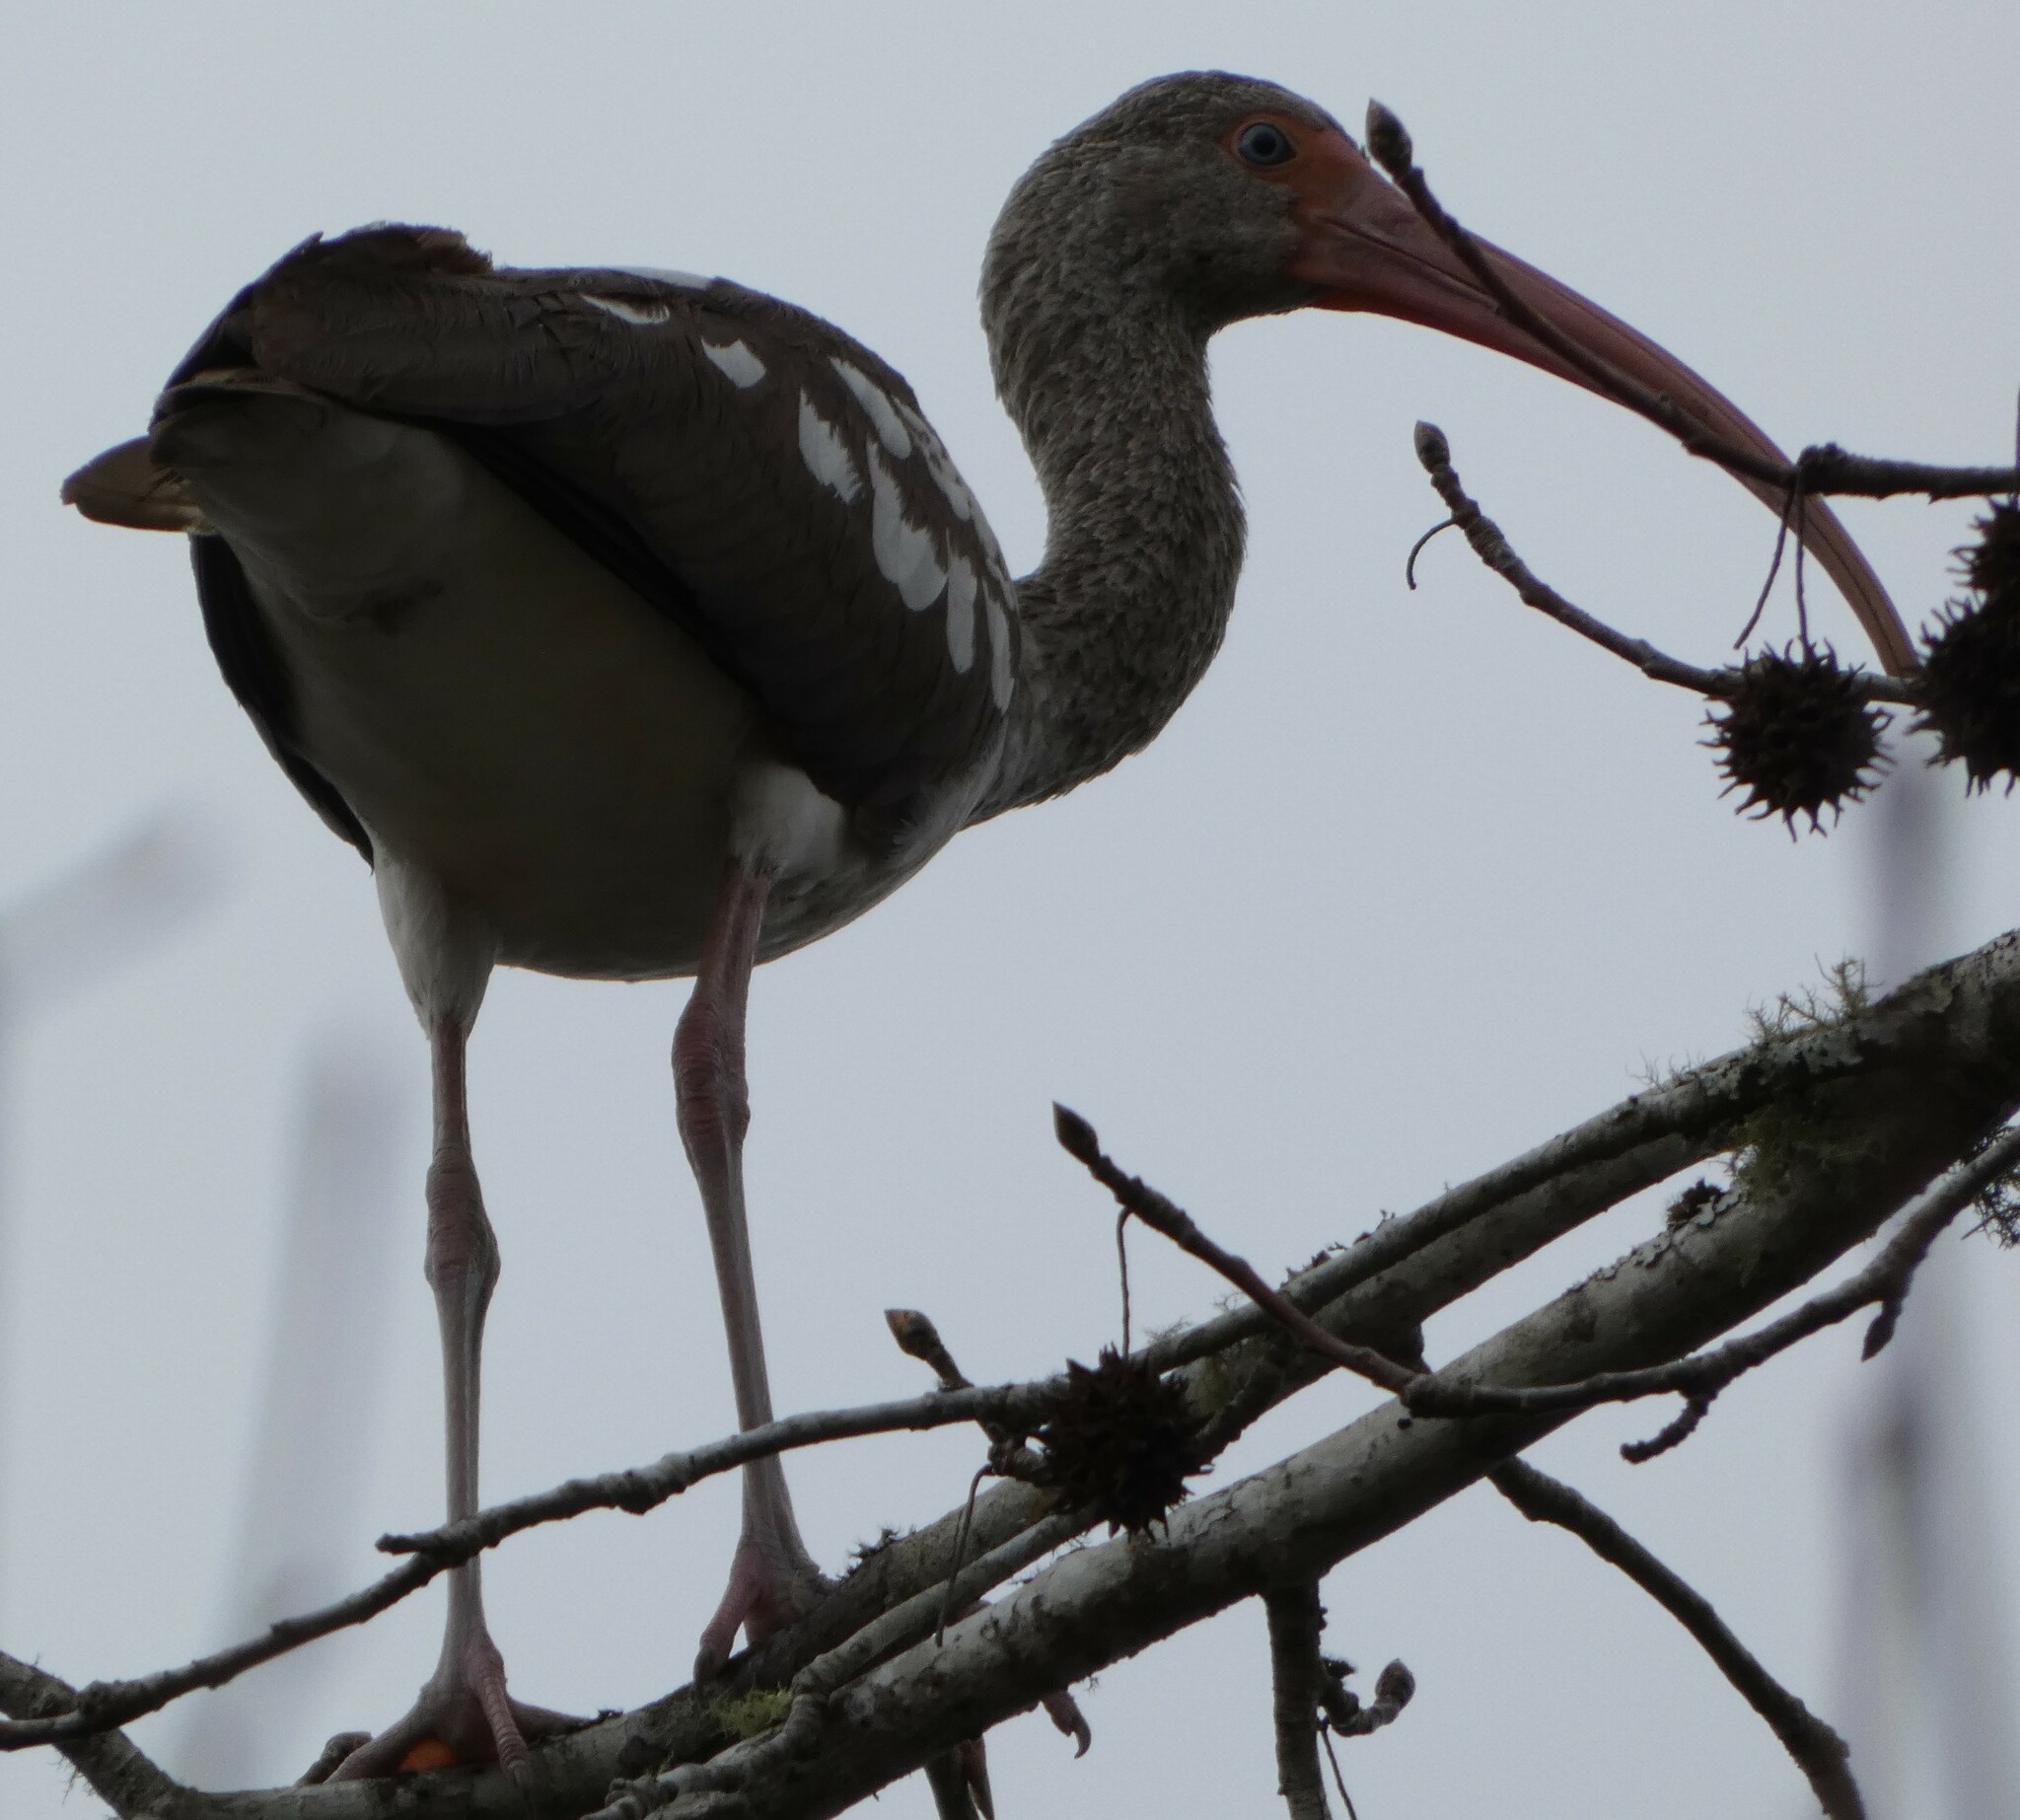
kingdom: Animalia
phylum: Chordata
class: Aves
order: Pelecaniformes
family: Threskiornithidae
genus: Eudocimus
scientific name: Eudocimus albus
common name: White ibis
